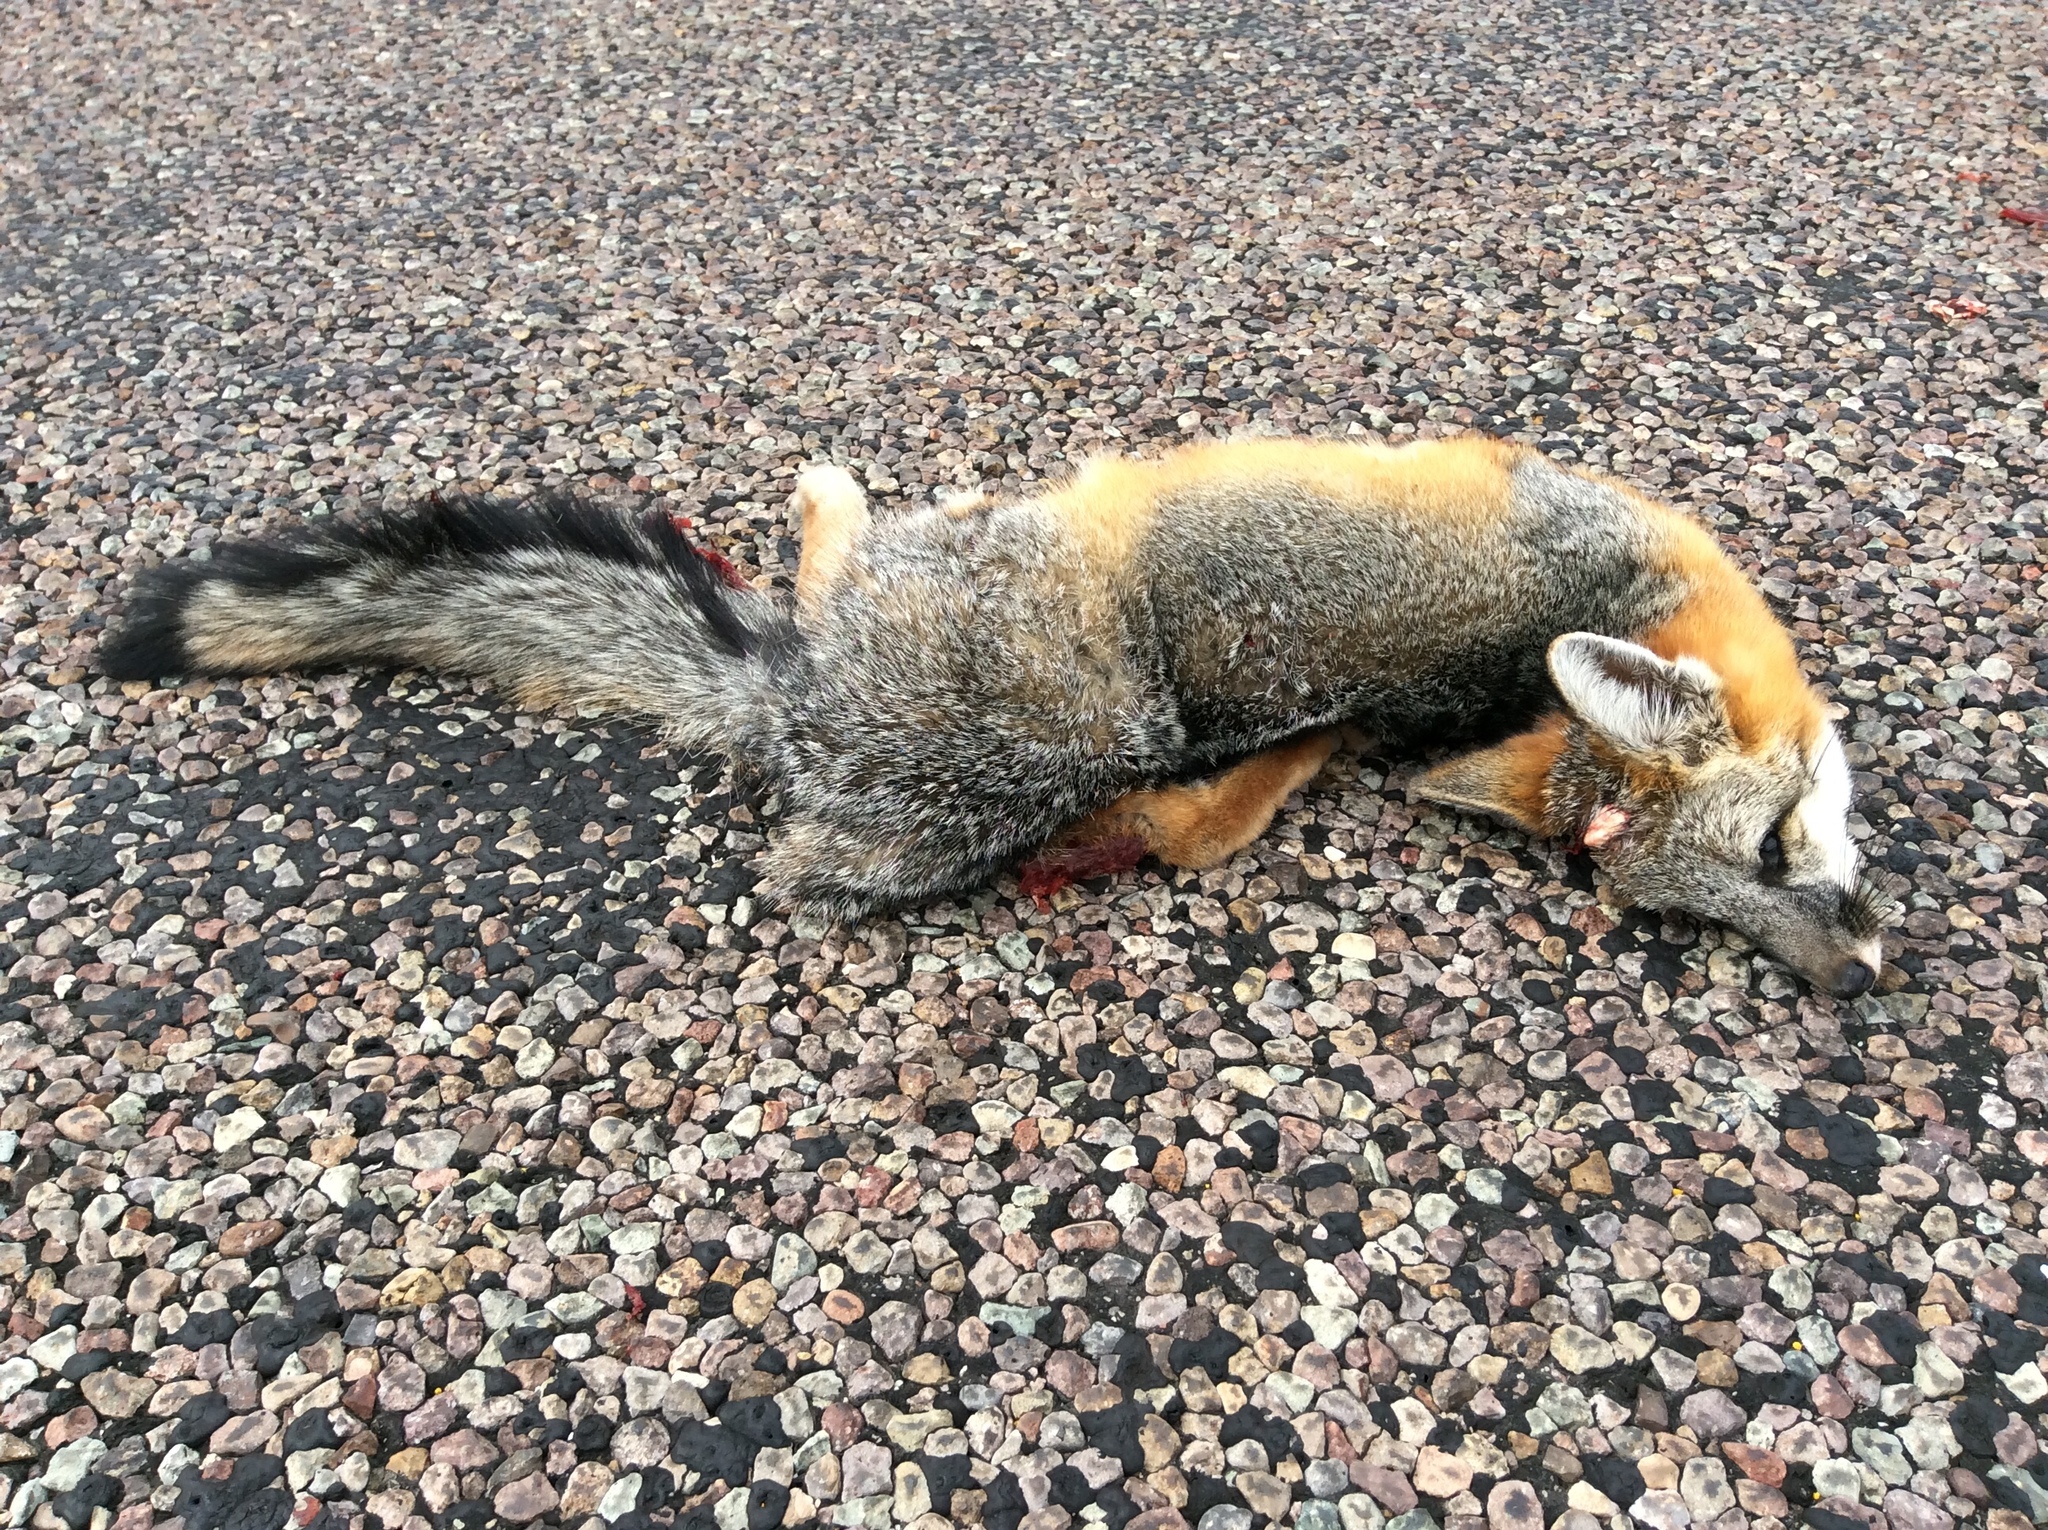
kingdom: Animalia
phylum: Chordata
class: Mammalia
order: Carnivora
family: Canidae
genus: Urocyon
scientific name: Urocyon cinereoargenteus
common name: Gray fox
